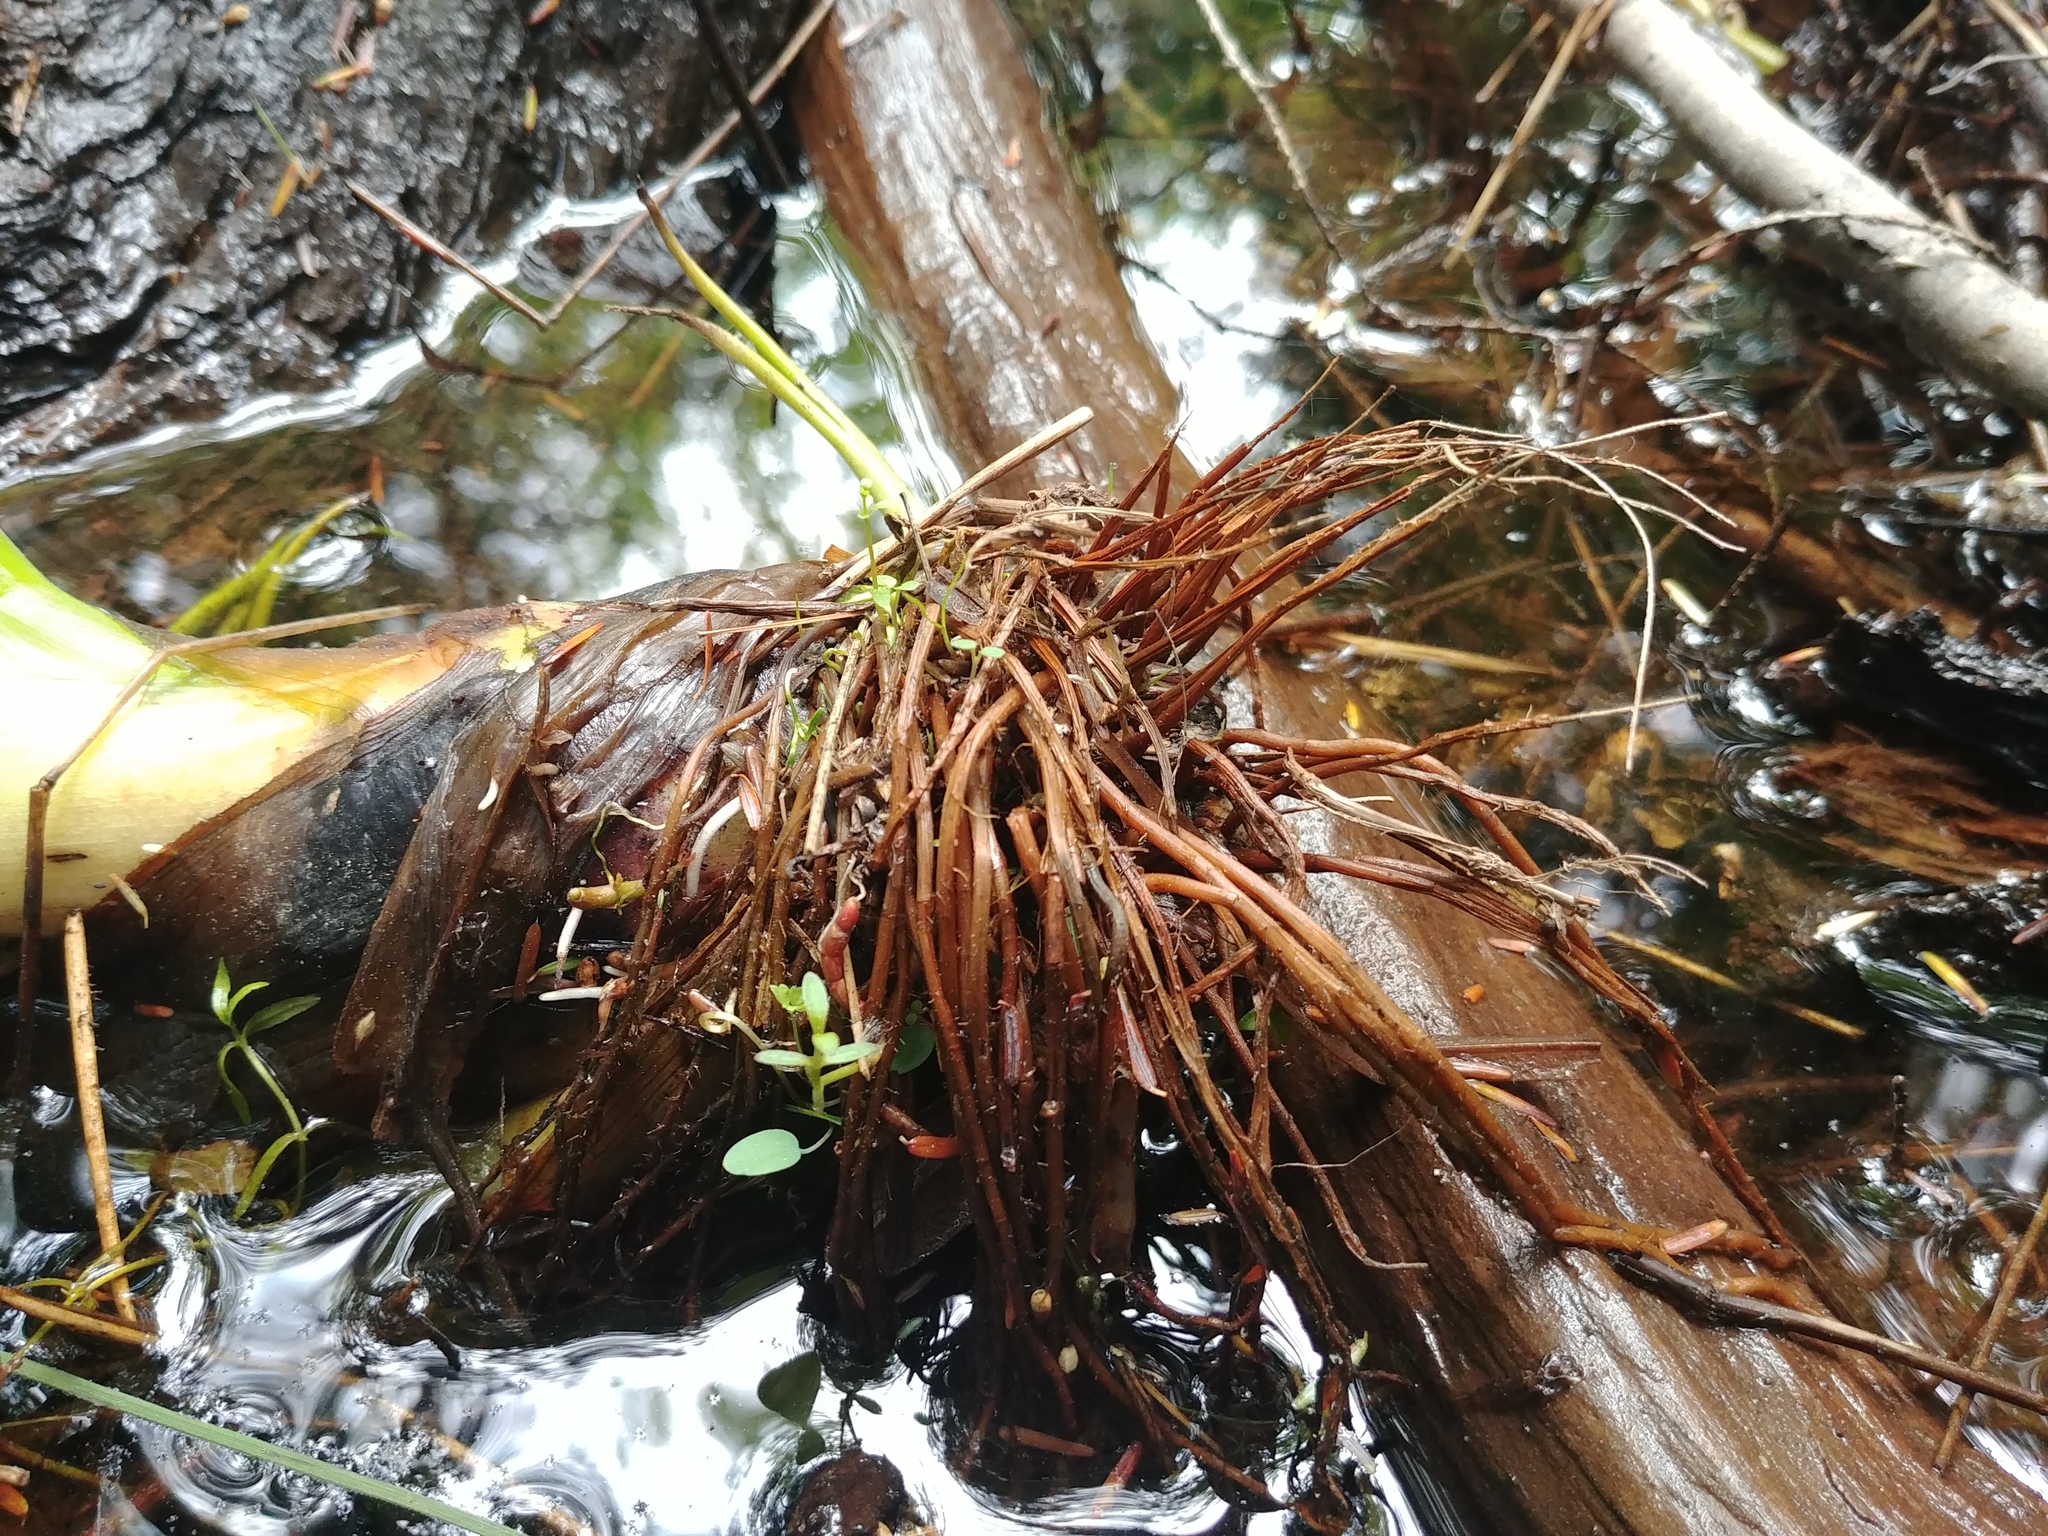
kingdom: Plantae
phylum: Tracheophyta
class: Liliopsida
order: Commelinales
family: Pontederiaceae
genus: Pontederia
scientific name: Pontederia cordata
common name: Pickerelweed
